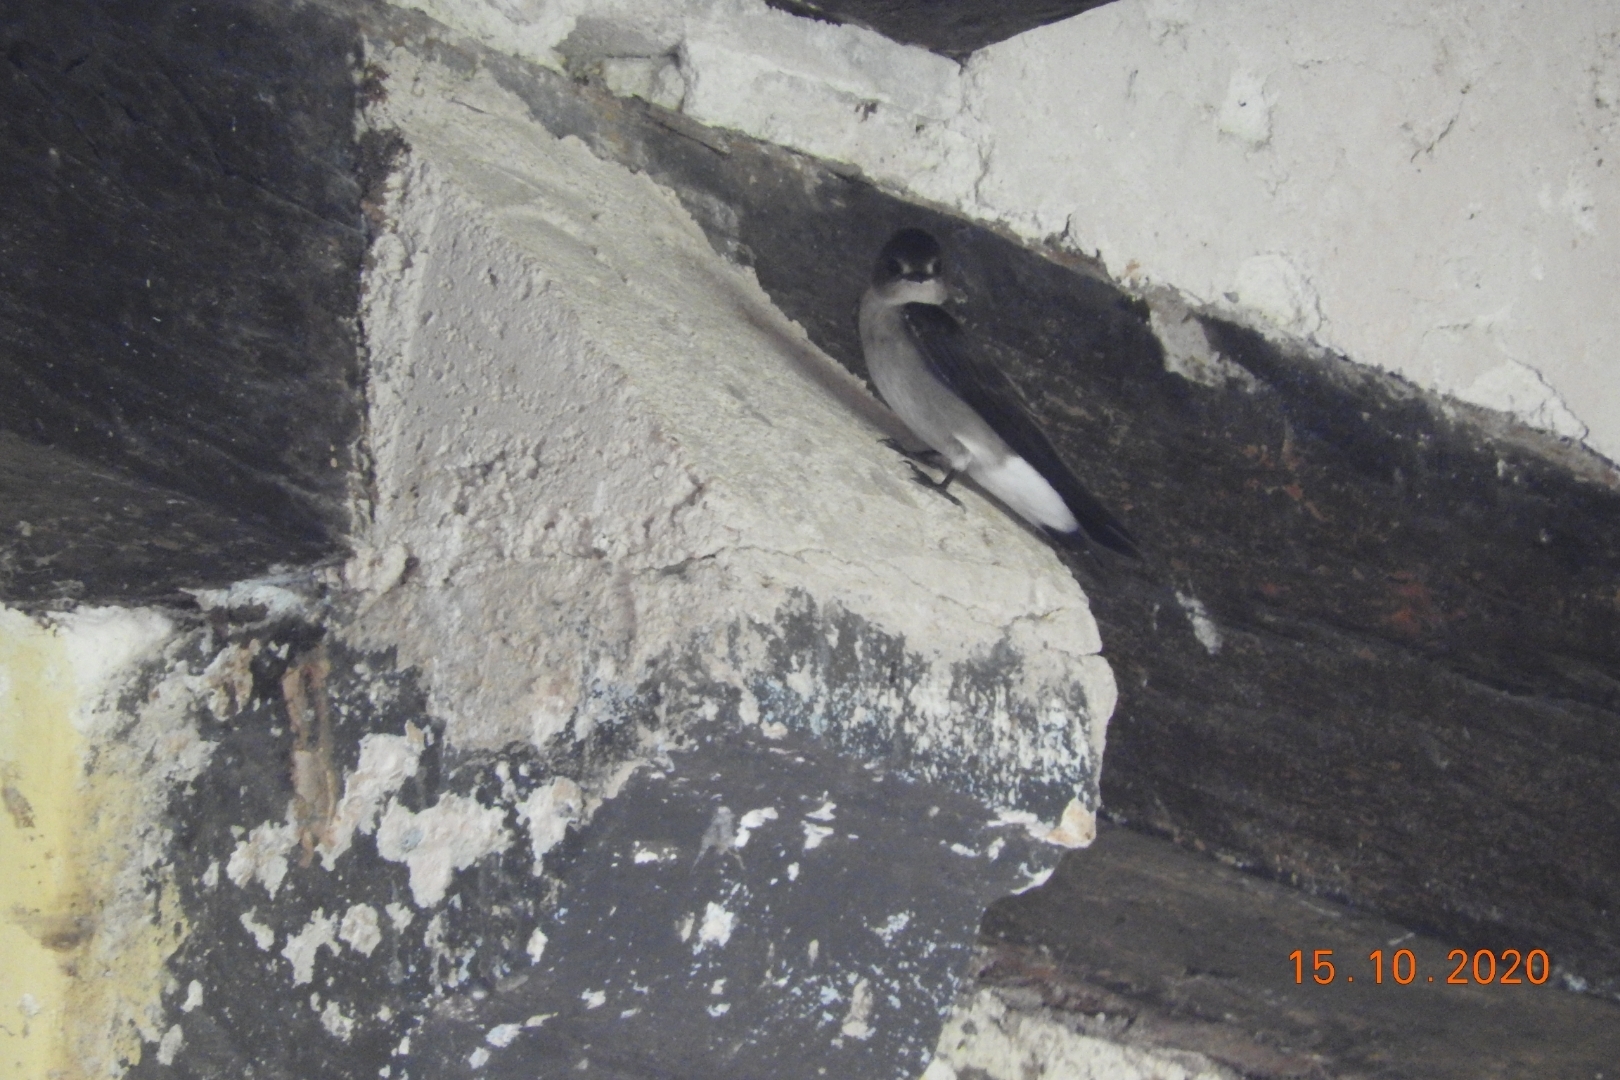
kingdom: Animalia
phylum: Chordata
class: Aves
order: Passeriformes
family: Hirundinidae
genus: Stelgidopteryx
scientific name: Stelgidopteryx serripennis
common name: Northern rough-winged swallow
